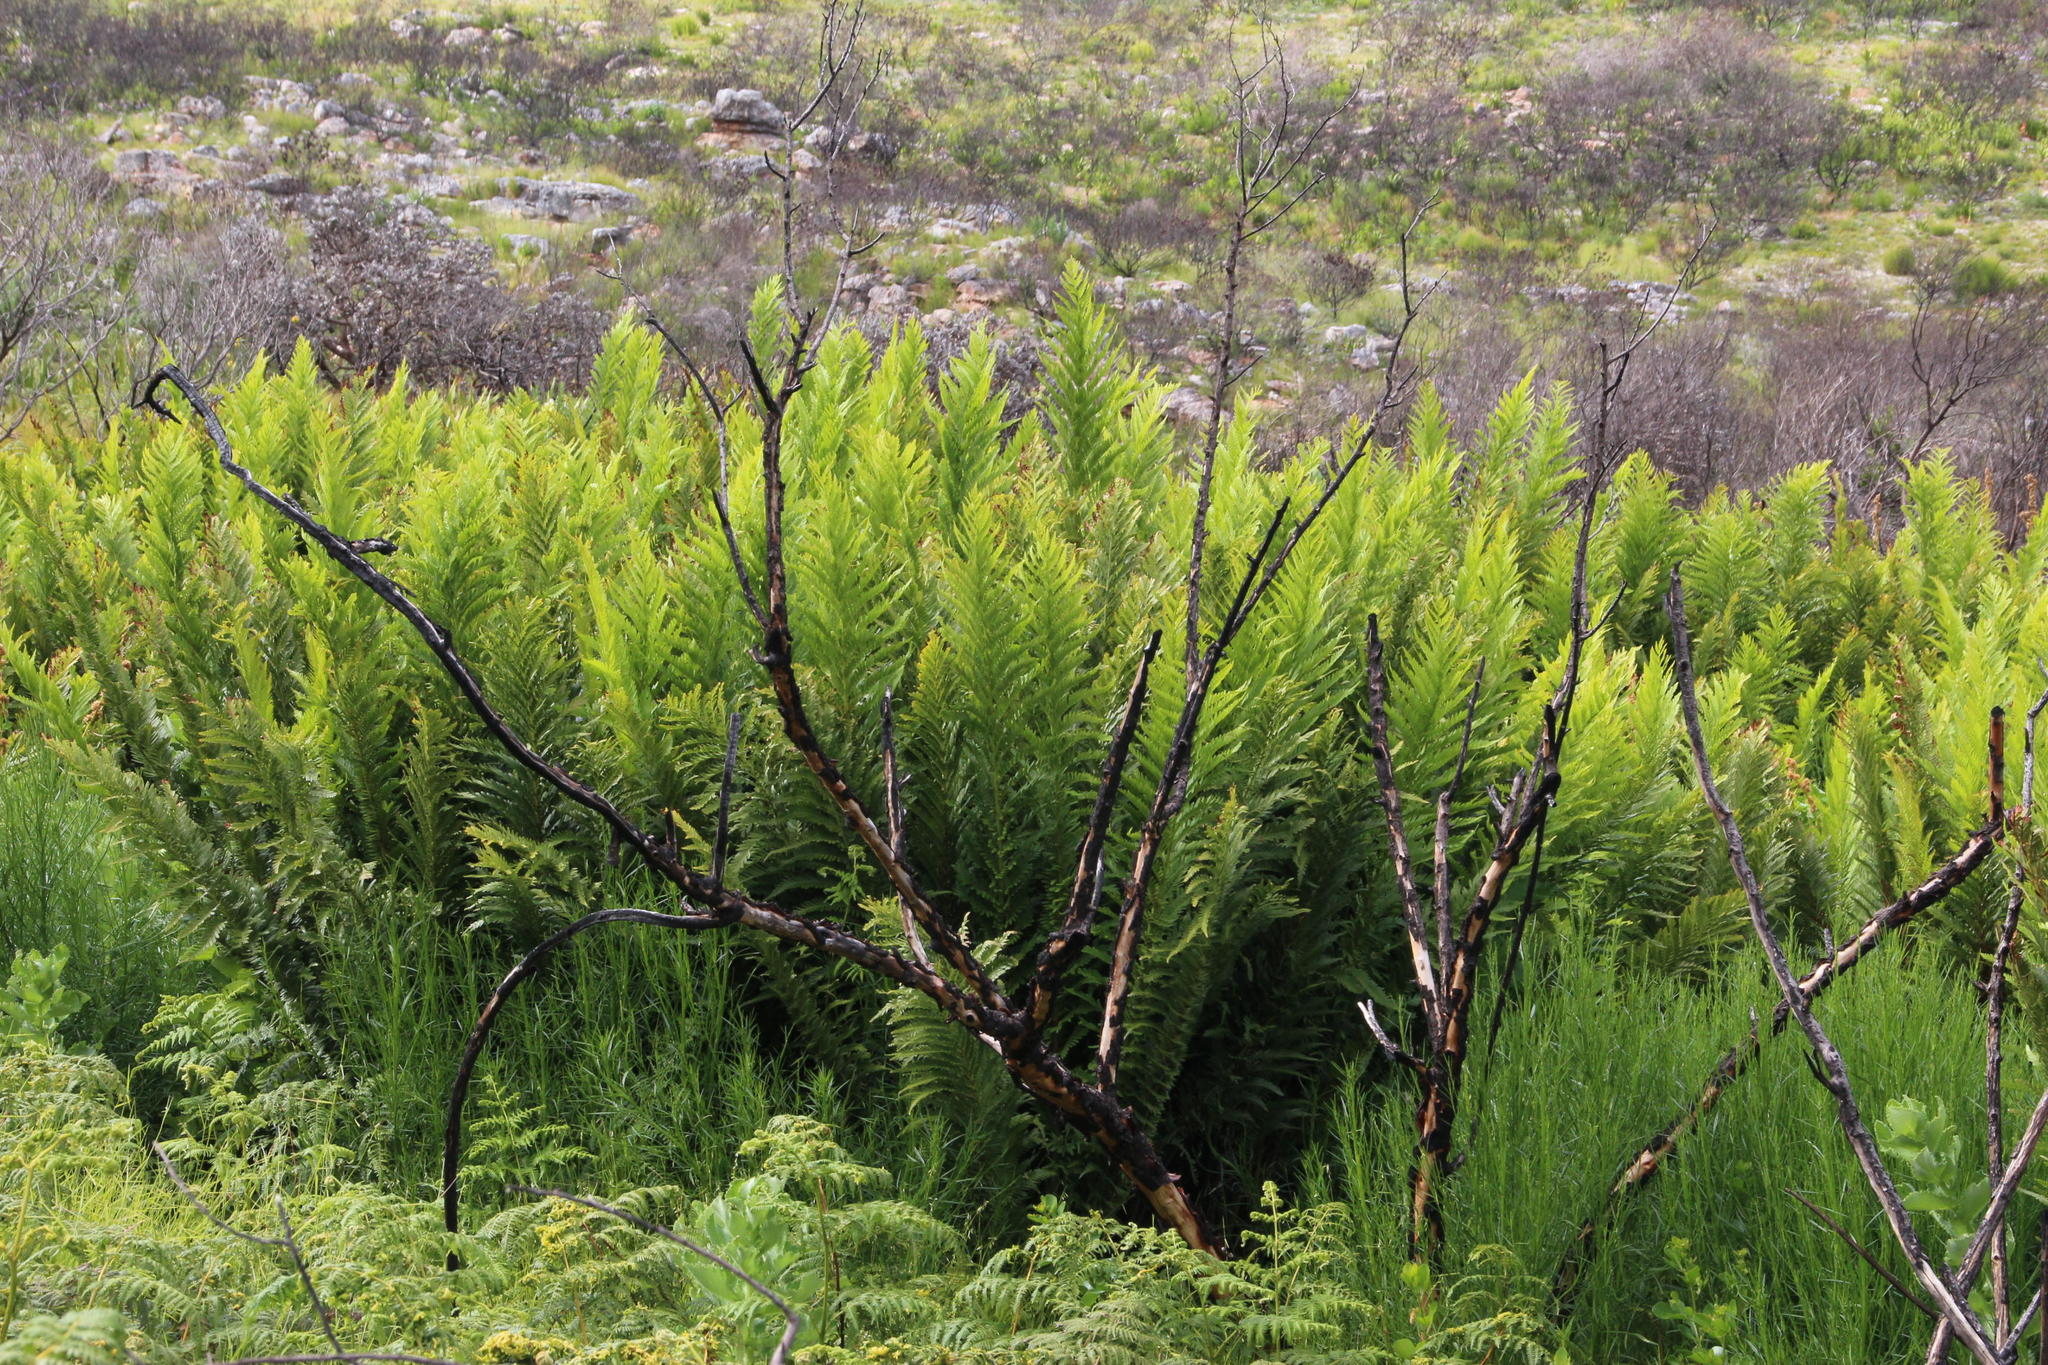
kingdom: Plantae
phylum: Tracheophyta
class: Polypodiopsida
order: Osmundales
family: Osmundaceae
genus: Todea
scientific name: Todea barbara
